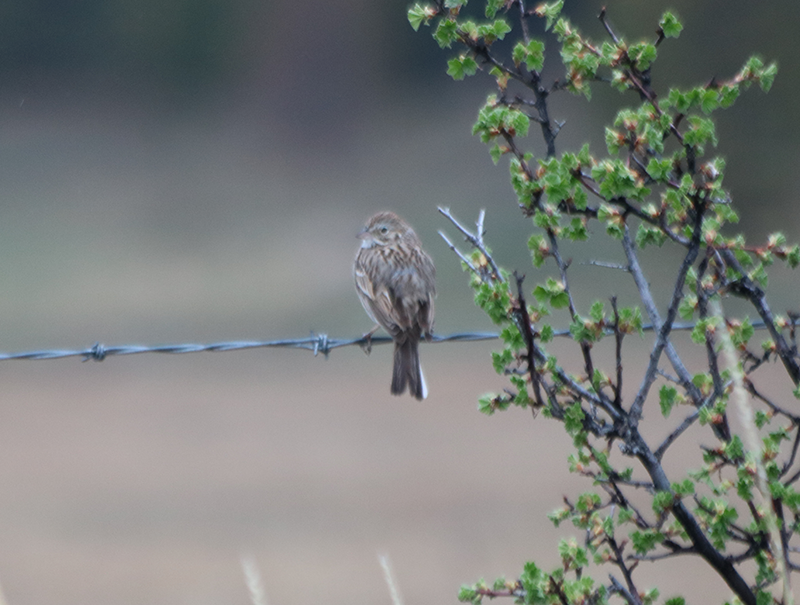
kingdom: Animalia
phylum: Chordata
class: Aves
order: Passeriformes
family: Passerellidae
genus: Pooecetes
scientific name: Pooecetes gramineus
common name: Vesper sparrow
